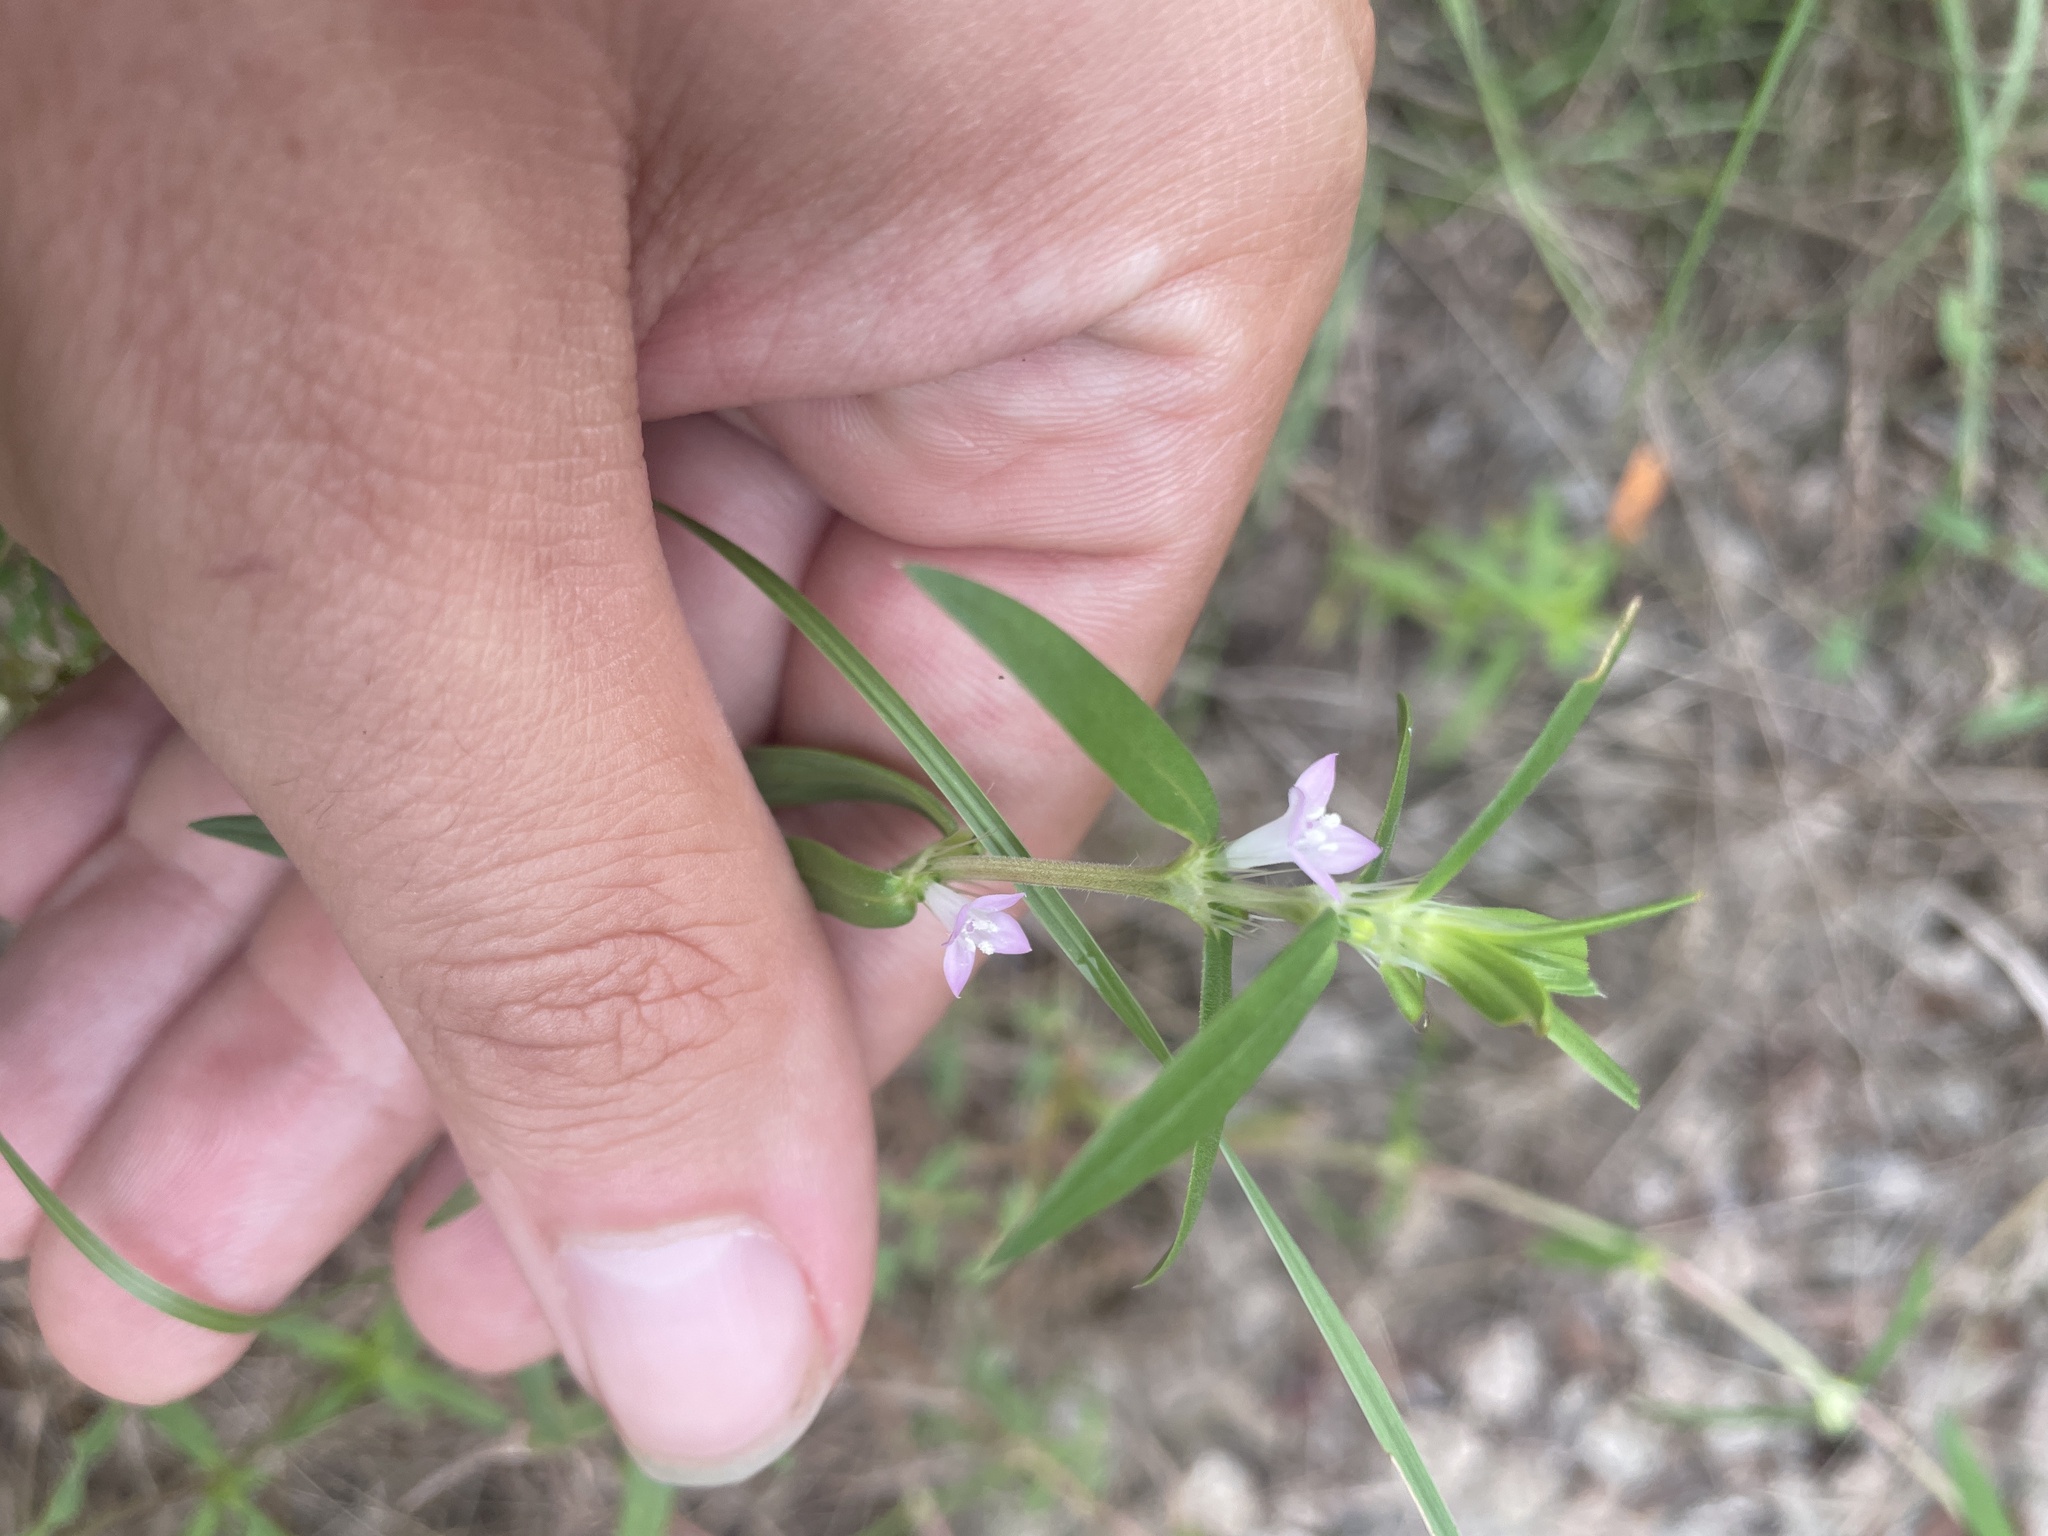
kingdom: Plantae
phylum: Tracheophyta
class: Magnoliopsida
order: Gentianales
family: Rubiaceae
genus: Hexasepalum
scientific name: Hexasepalum teres
